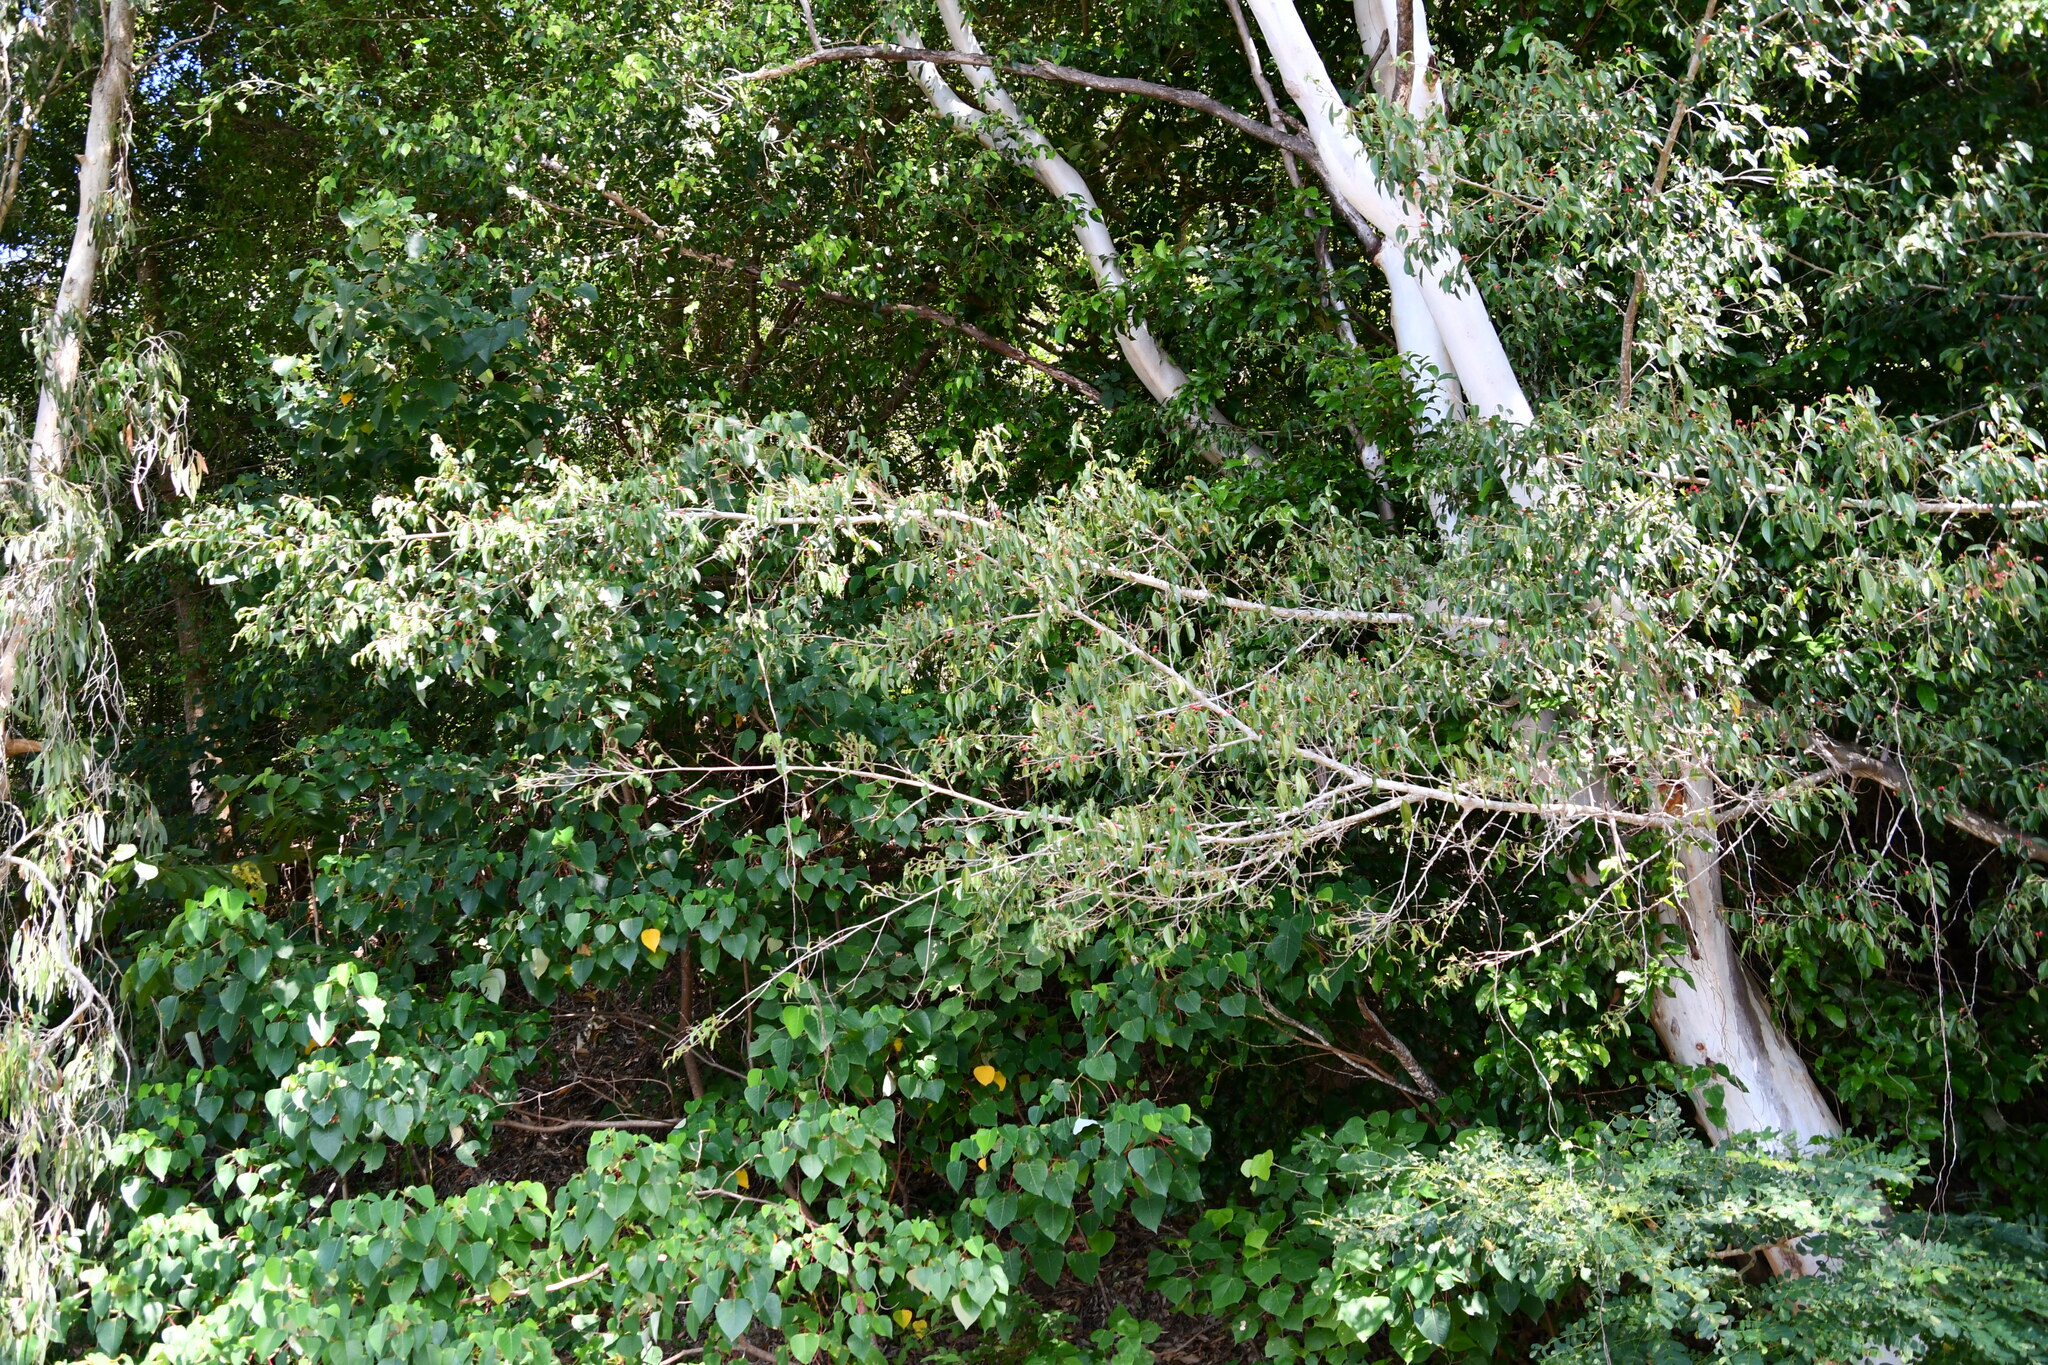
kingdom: Plantae
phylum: Tracheophyta
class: Magnoliopsida
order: Rosales
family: Moraceae
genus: Ficus
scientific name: Ficus benjamina
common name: Weeping fig
